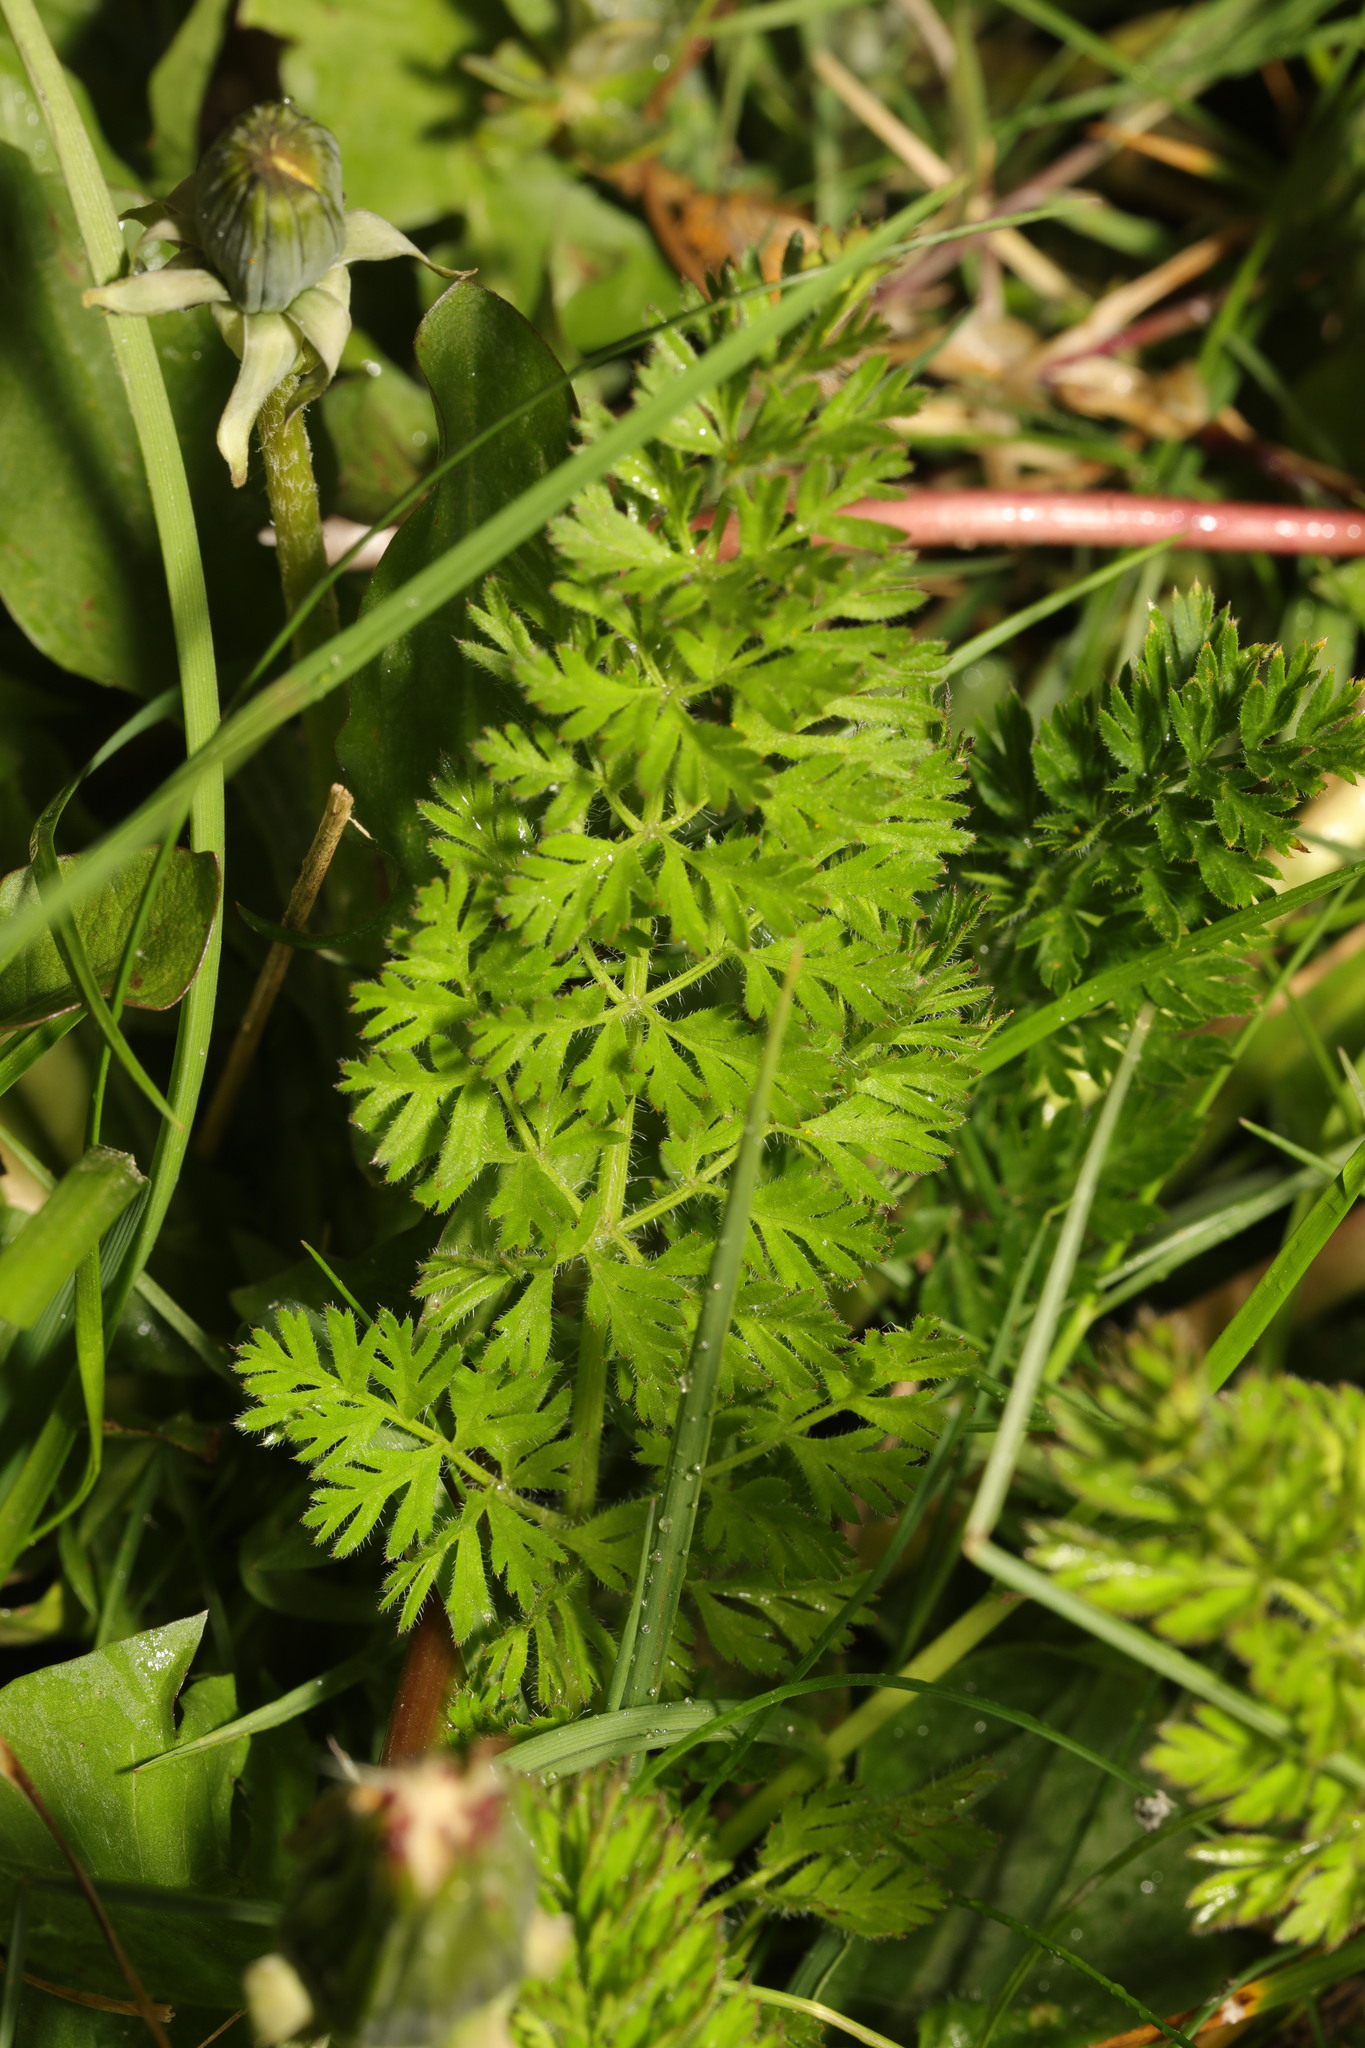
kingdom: Plantae
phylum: Tracheophyta
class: Magnoliopsida
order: Apiales
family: Apiaceae
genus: Daucus
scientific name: Daucus carota
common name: Wild carrot
